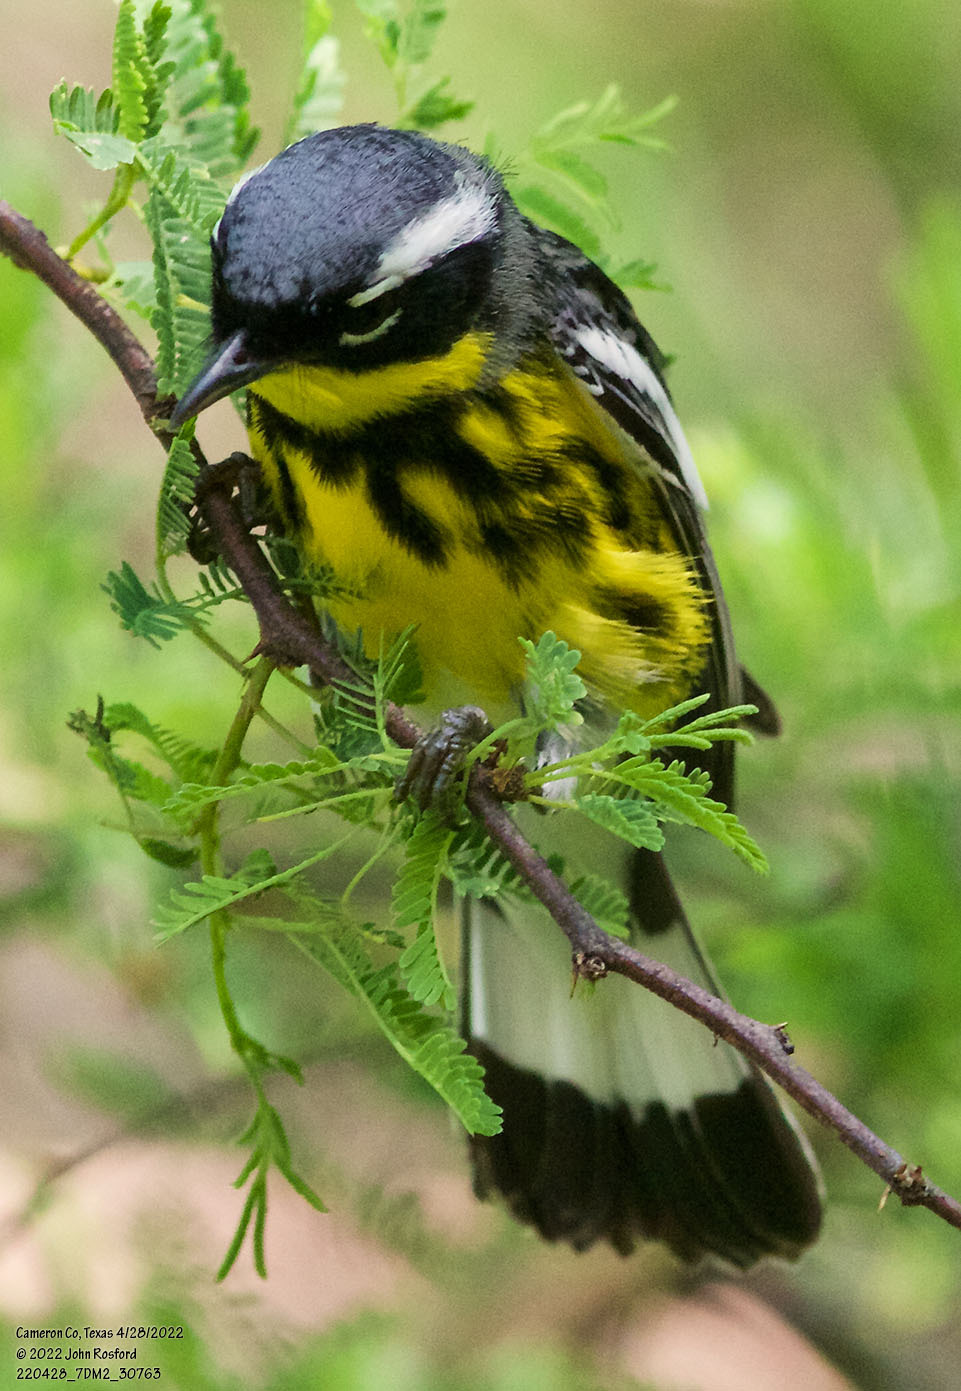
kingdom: Animalia
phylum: Chordata
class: Aves
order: Passeriformes
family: Parulidae
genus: Setophaga
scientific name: Setophaga magnolia
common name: Magnolia warbler
